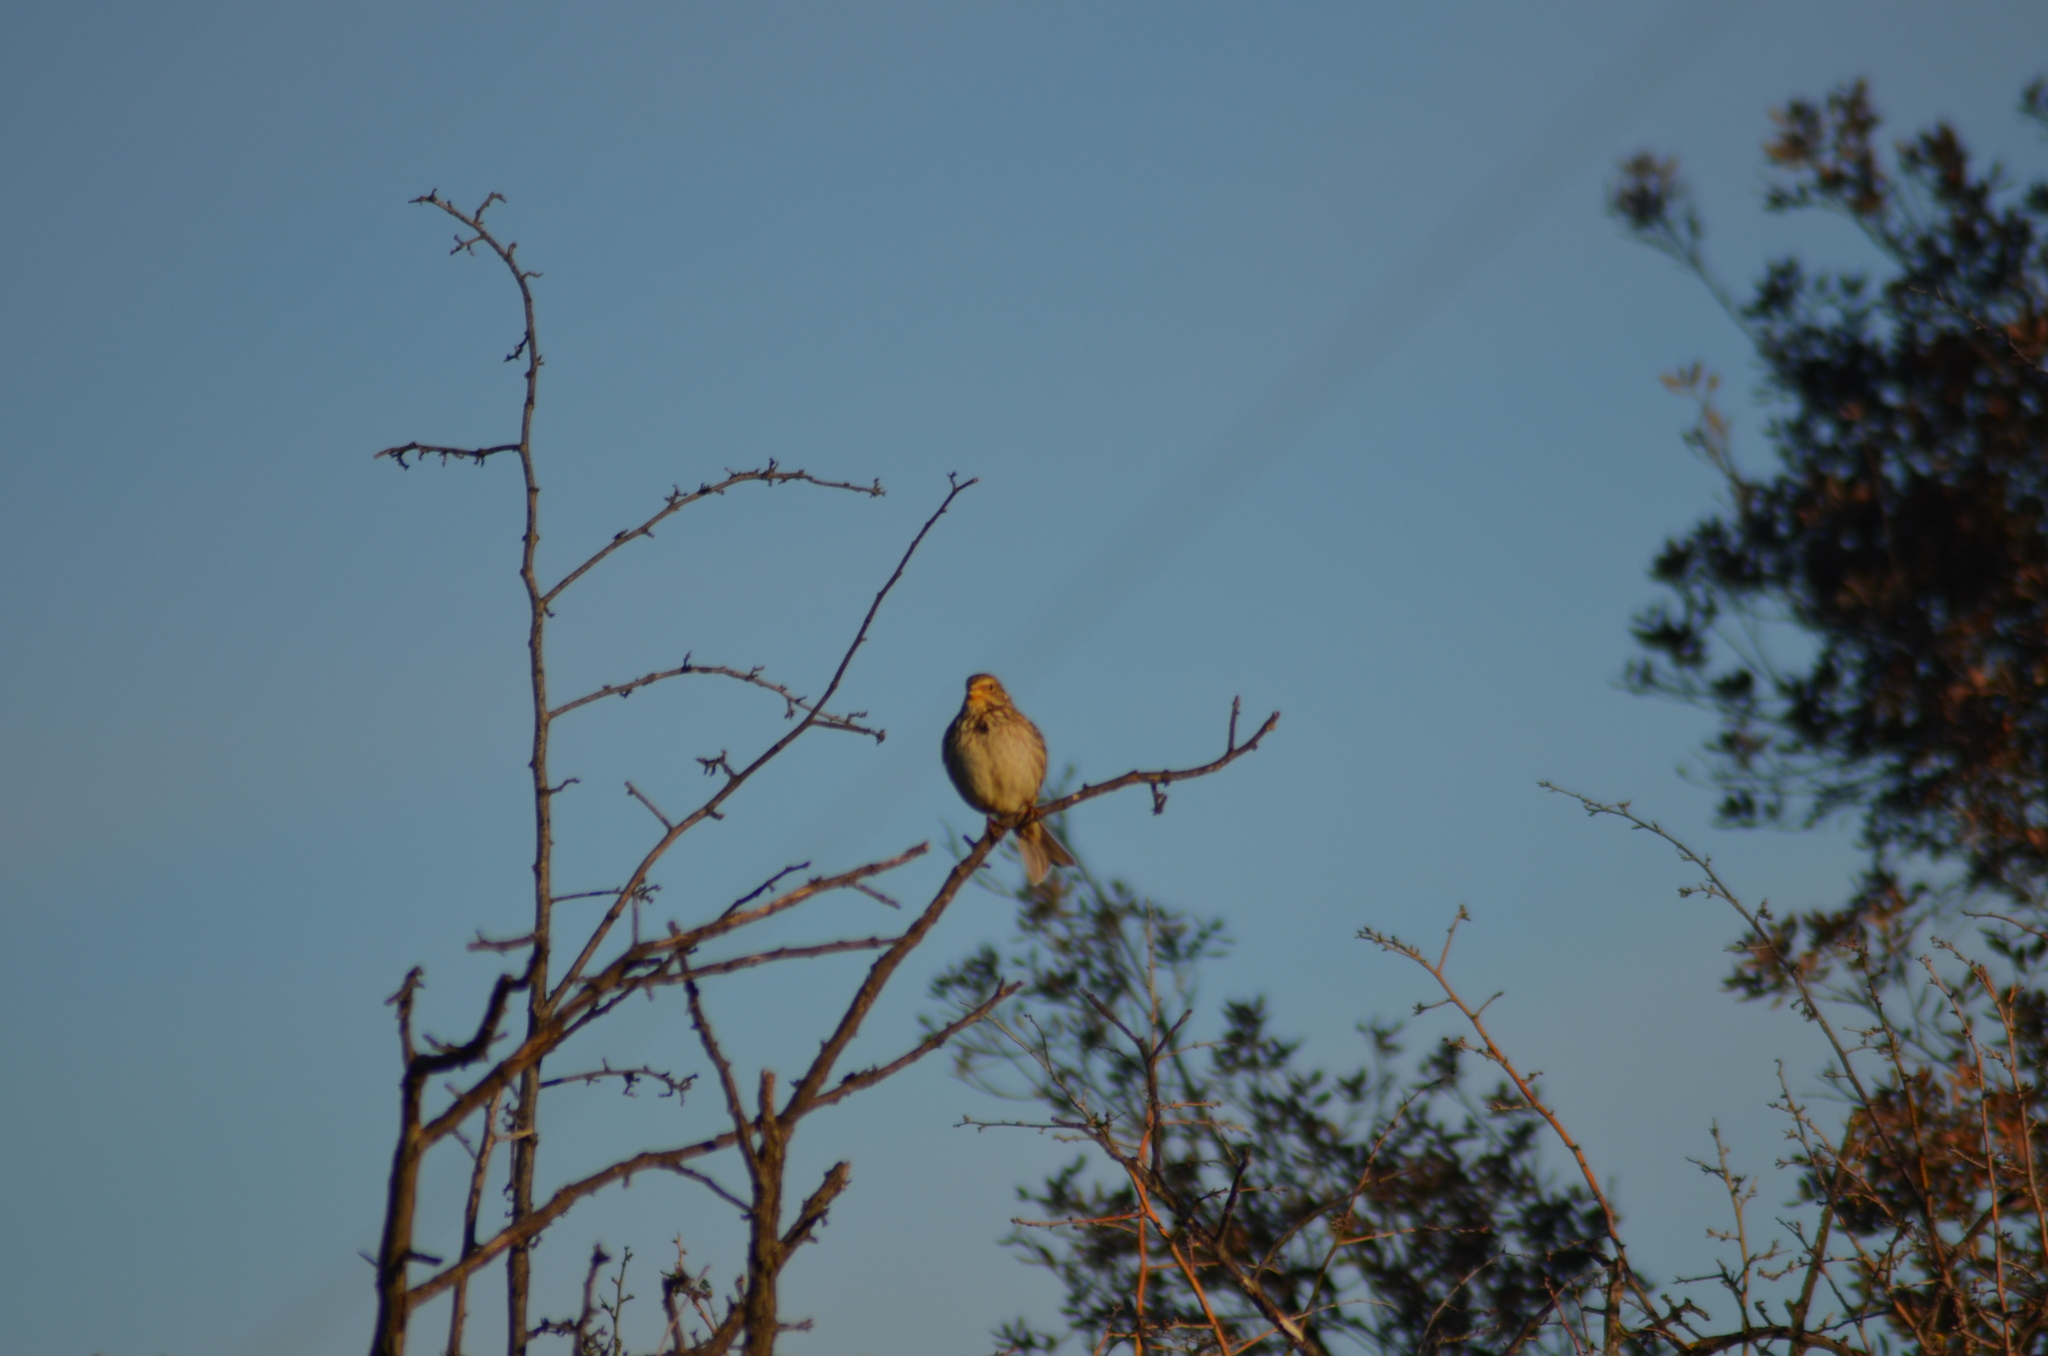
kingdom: Animalia
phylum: Chordata
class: Aves
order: Passeriformes
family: Emberizidae
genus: Emberiza
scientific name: Emberiza calandra
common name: Corn bunting
